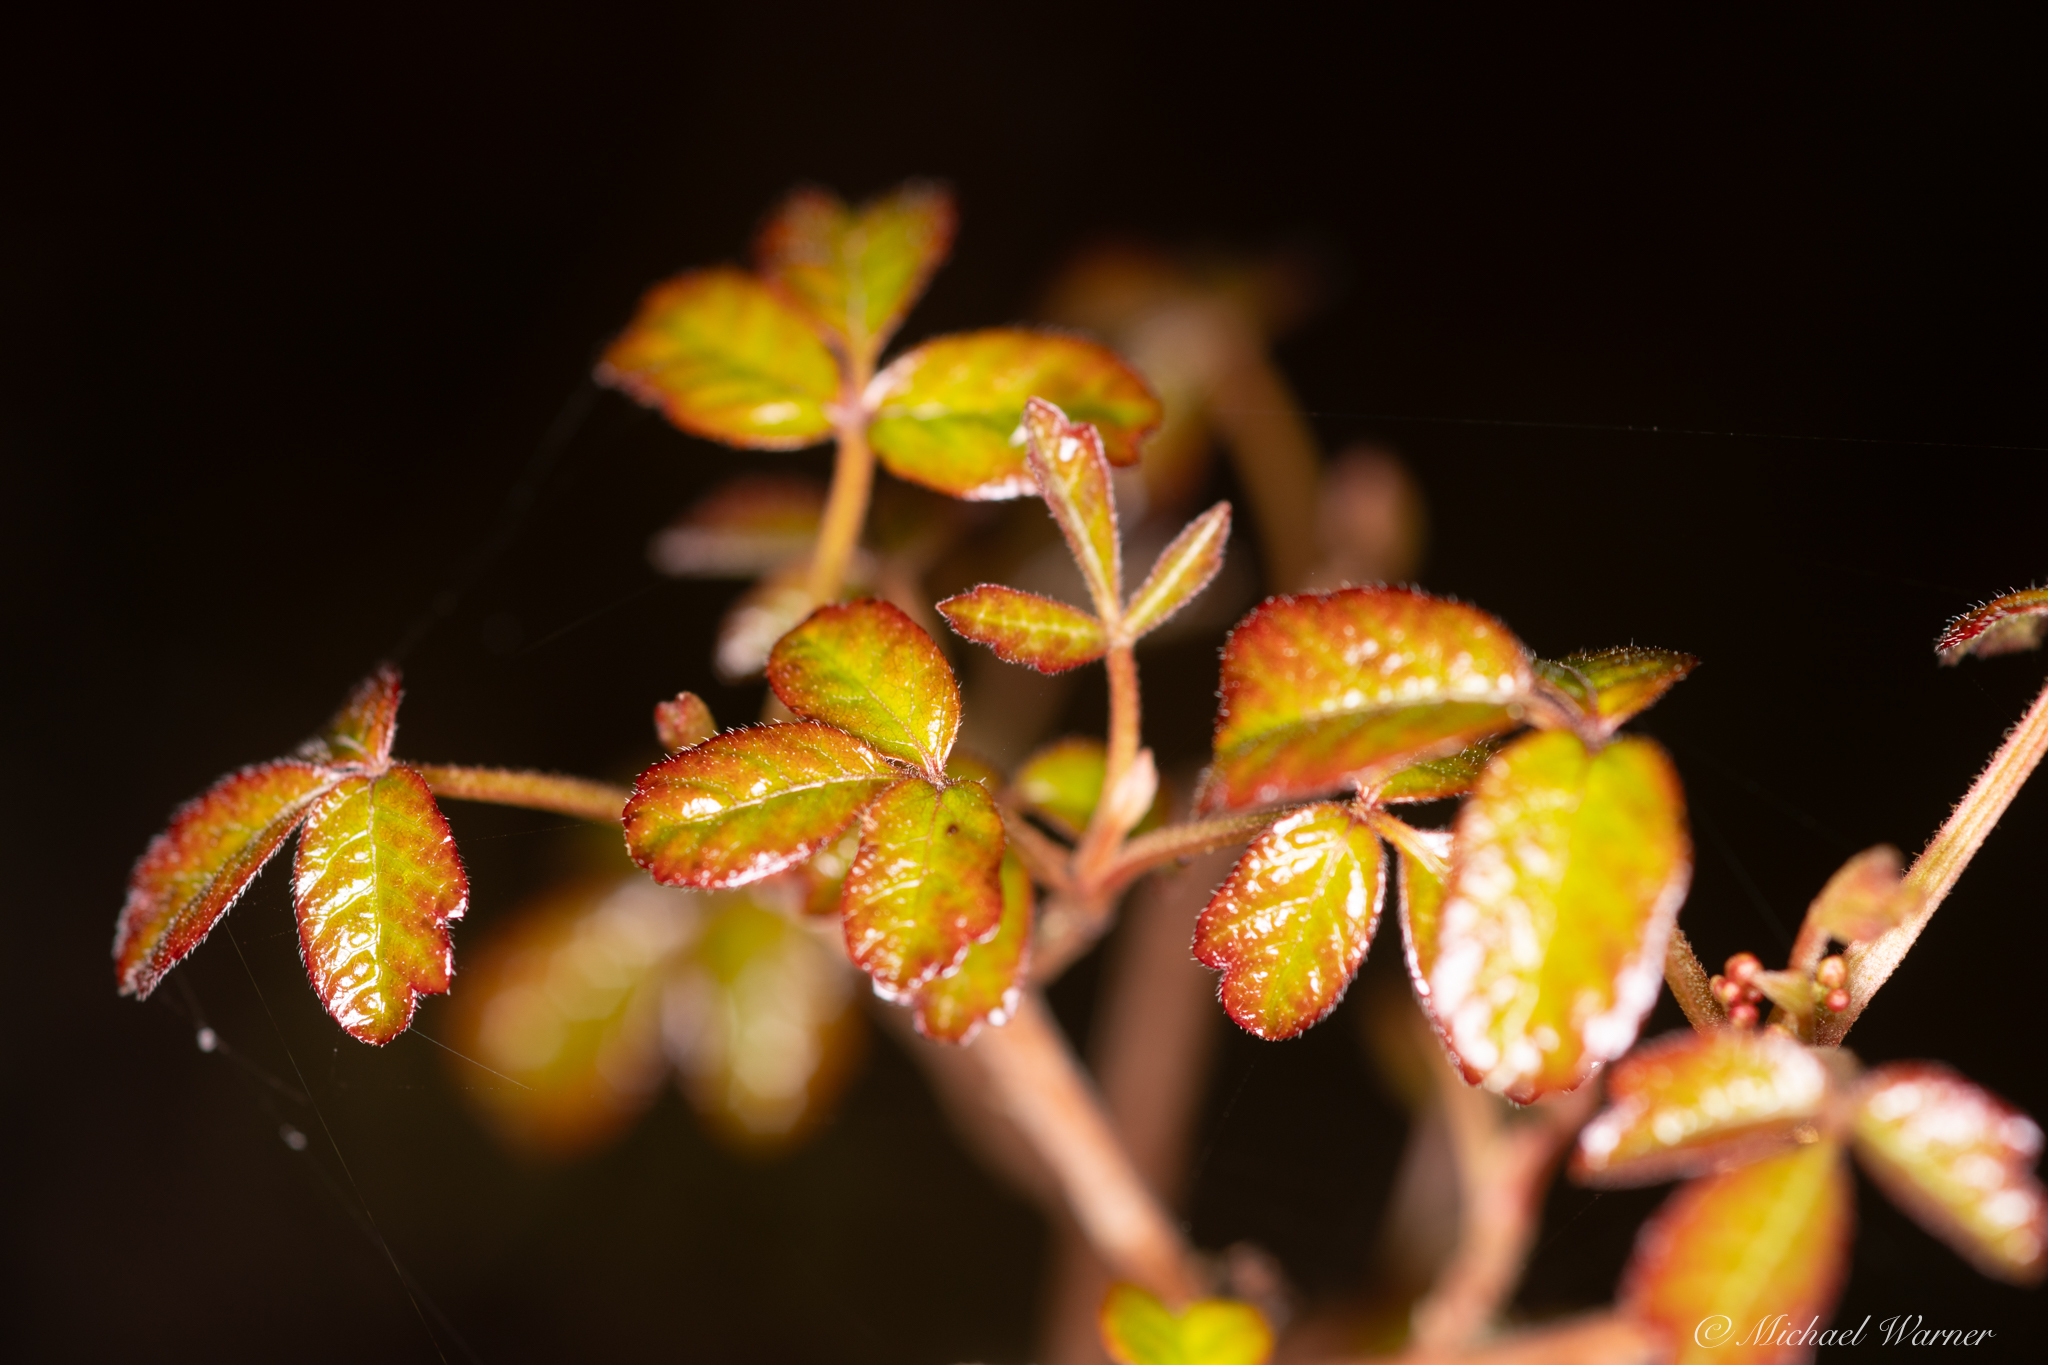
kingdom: Plantae
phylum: Tracheophyta
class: Magnoliopsida
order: Sapindales
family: Anacardiaceae
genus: Toxicodendron
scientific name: Toxicodendron diversilobum
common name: Pacific poison-oak
